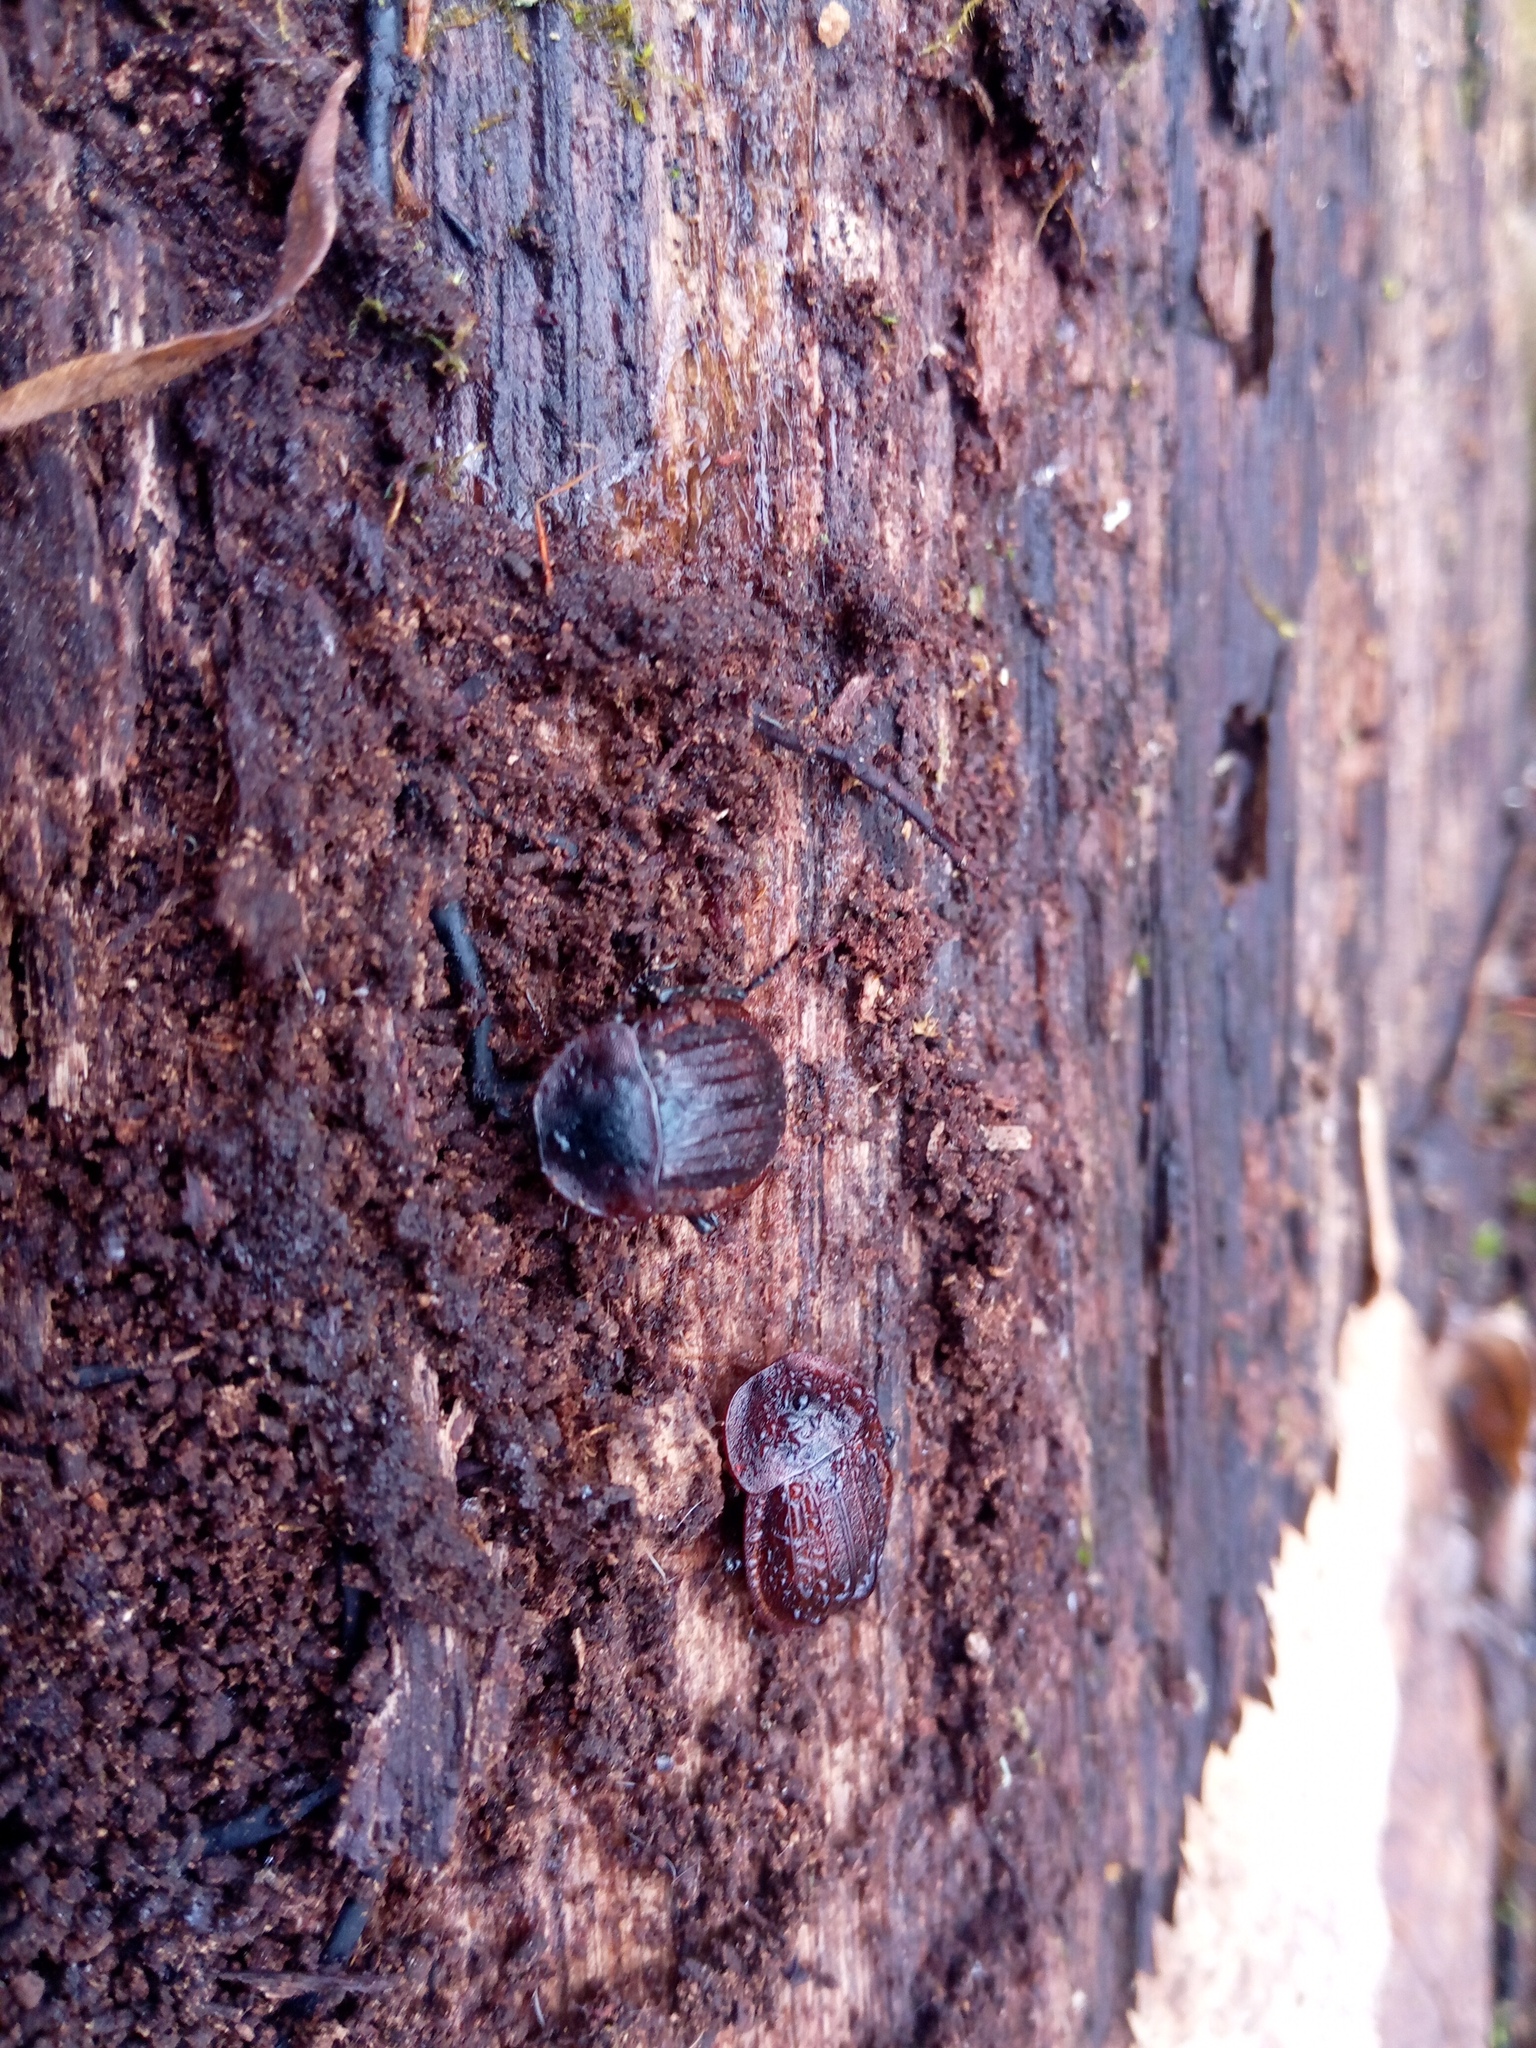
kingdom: Animalia
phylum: Arthropoda
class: Insecta
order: Coleoptera
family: Staphylinidae
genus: Silpha
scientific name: Silpha atrata
